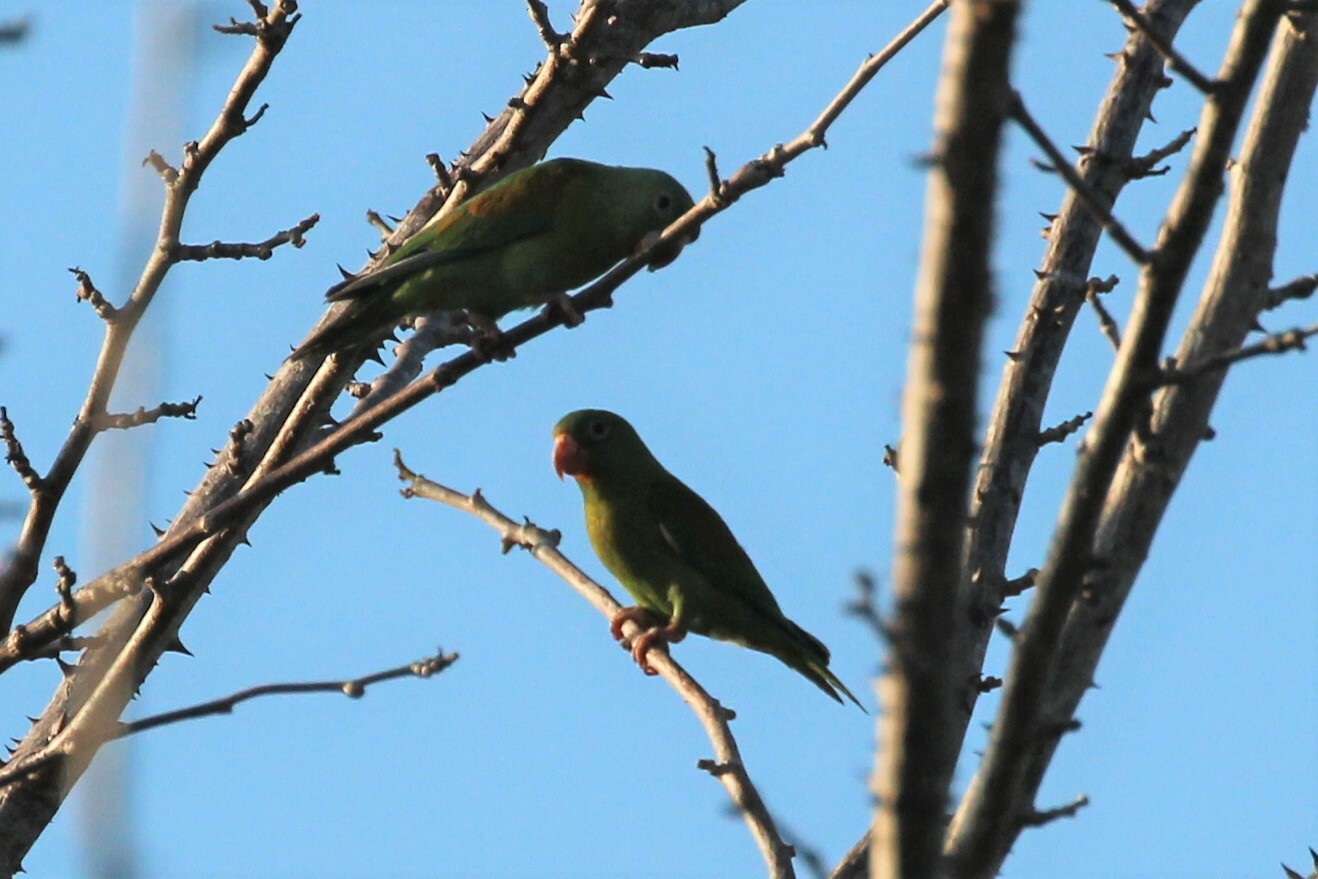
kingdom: Animalia
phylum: Chordata
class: Aves
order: Psittaciformes
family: Psittacidae
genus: Brotogeris
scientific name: Brotogeris jugularis
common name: Orange-chinned parakeet
